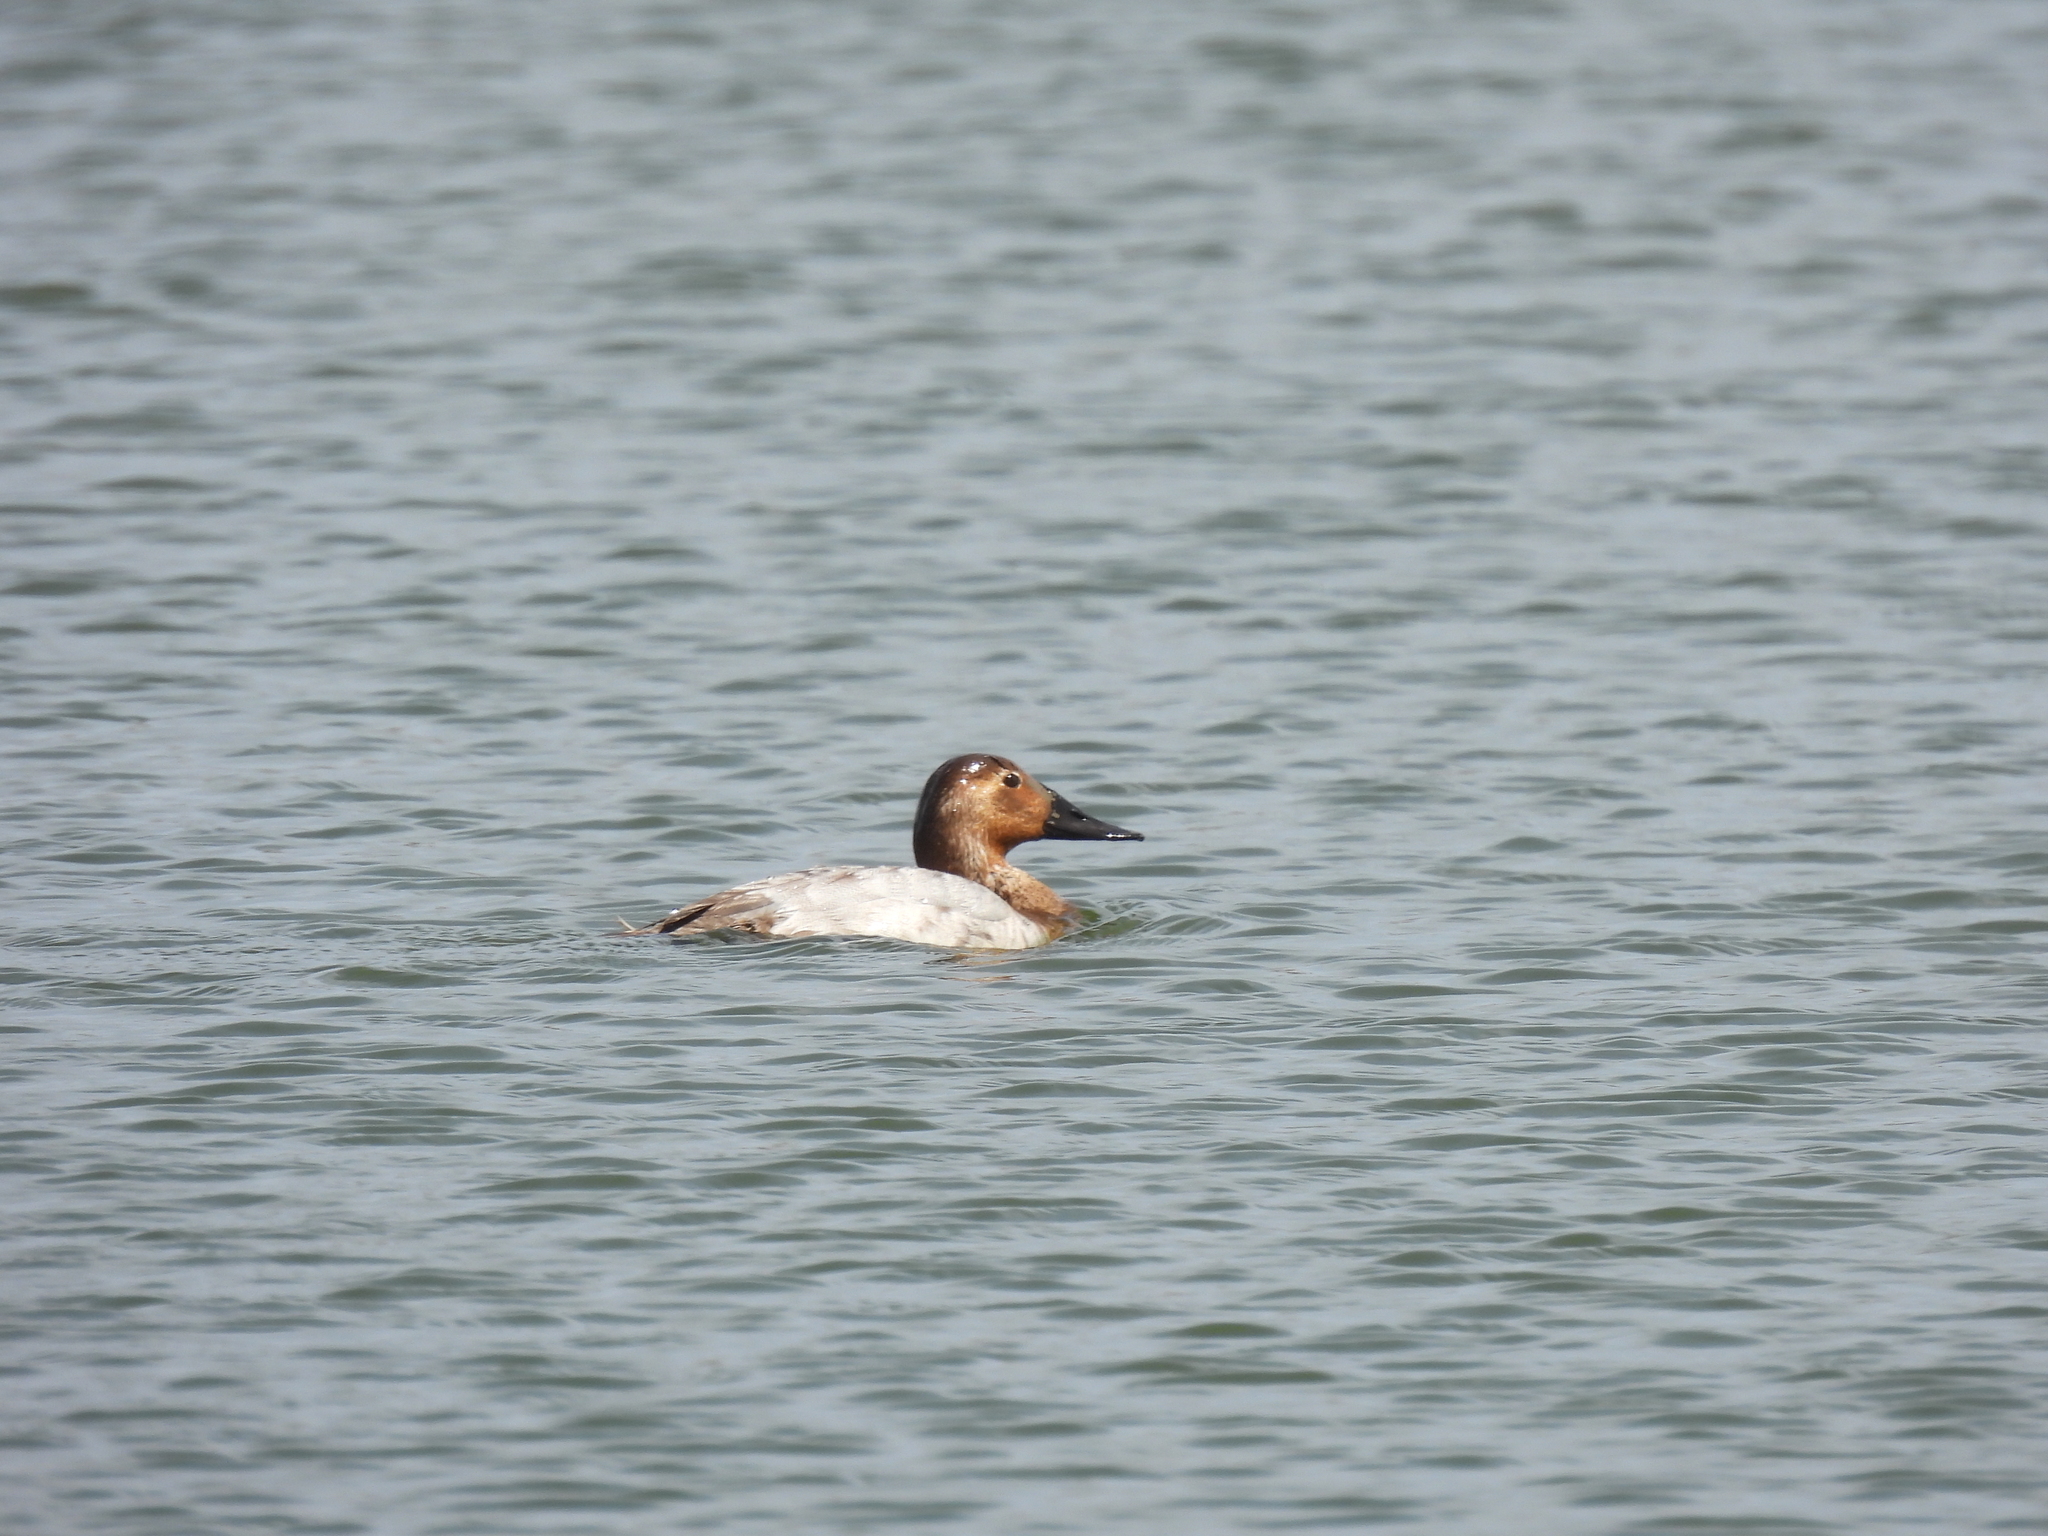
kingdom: Animalia
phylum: Chordata
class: Aves
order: Anseriformes
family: Anatidae
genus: Aythya
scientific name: Aythya valisineria
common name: Canvasback
